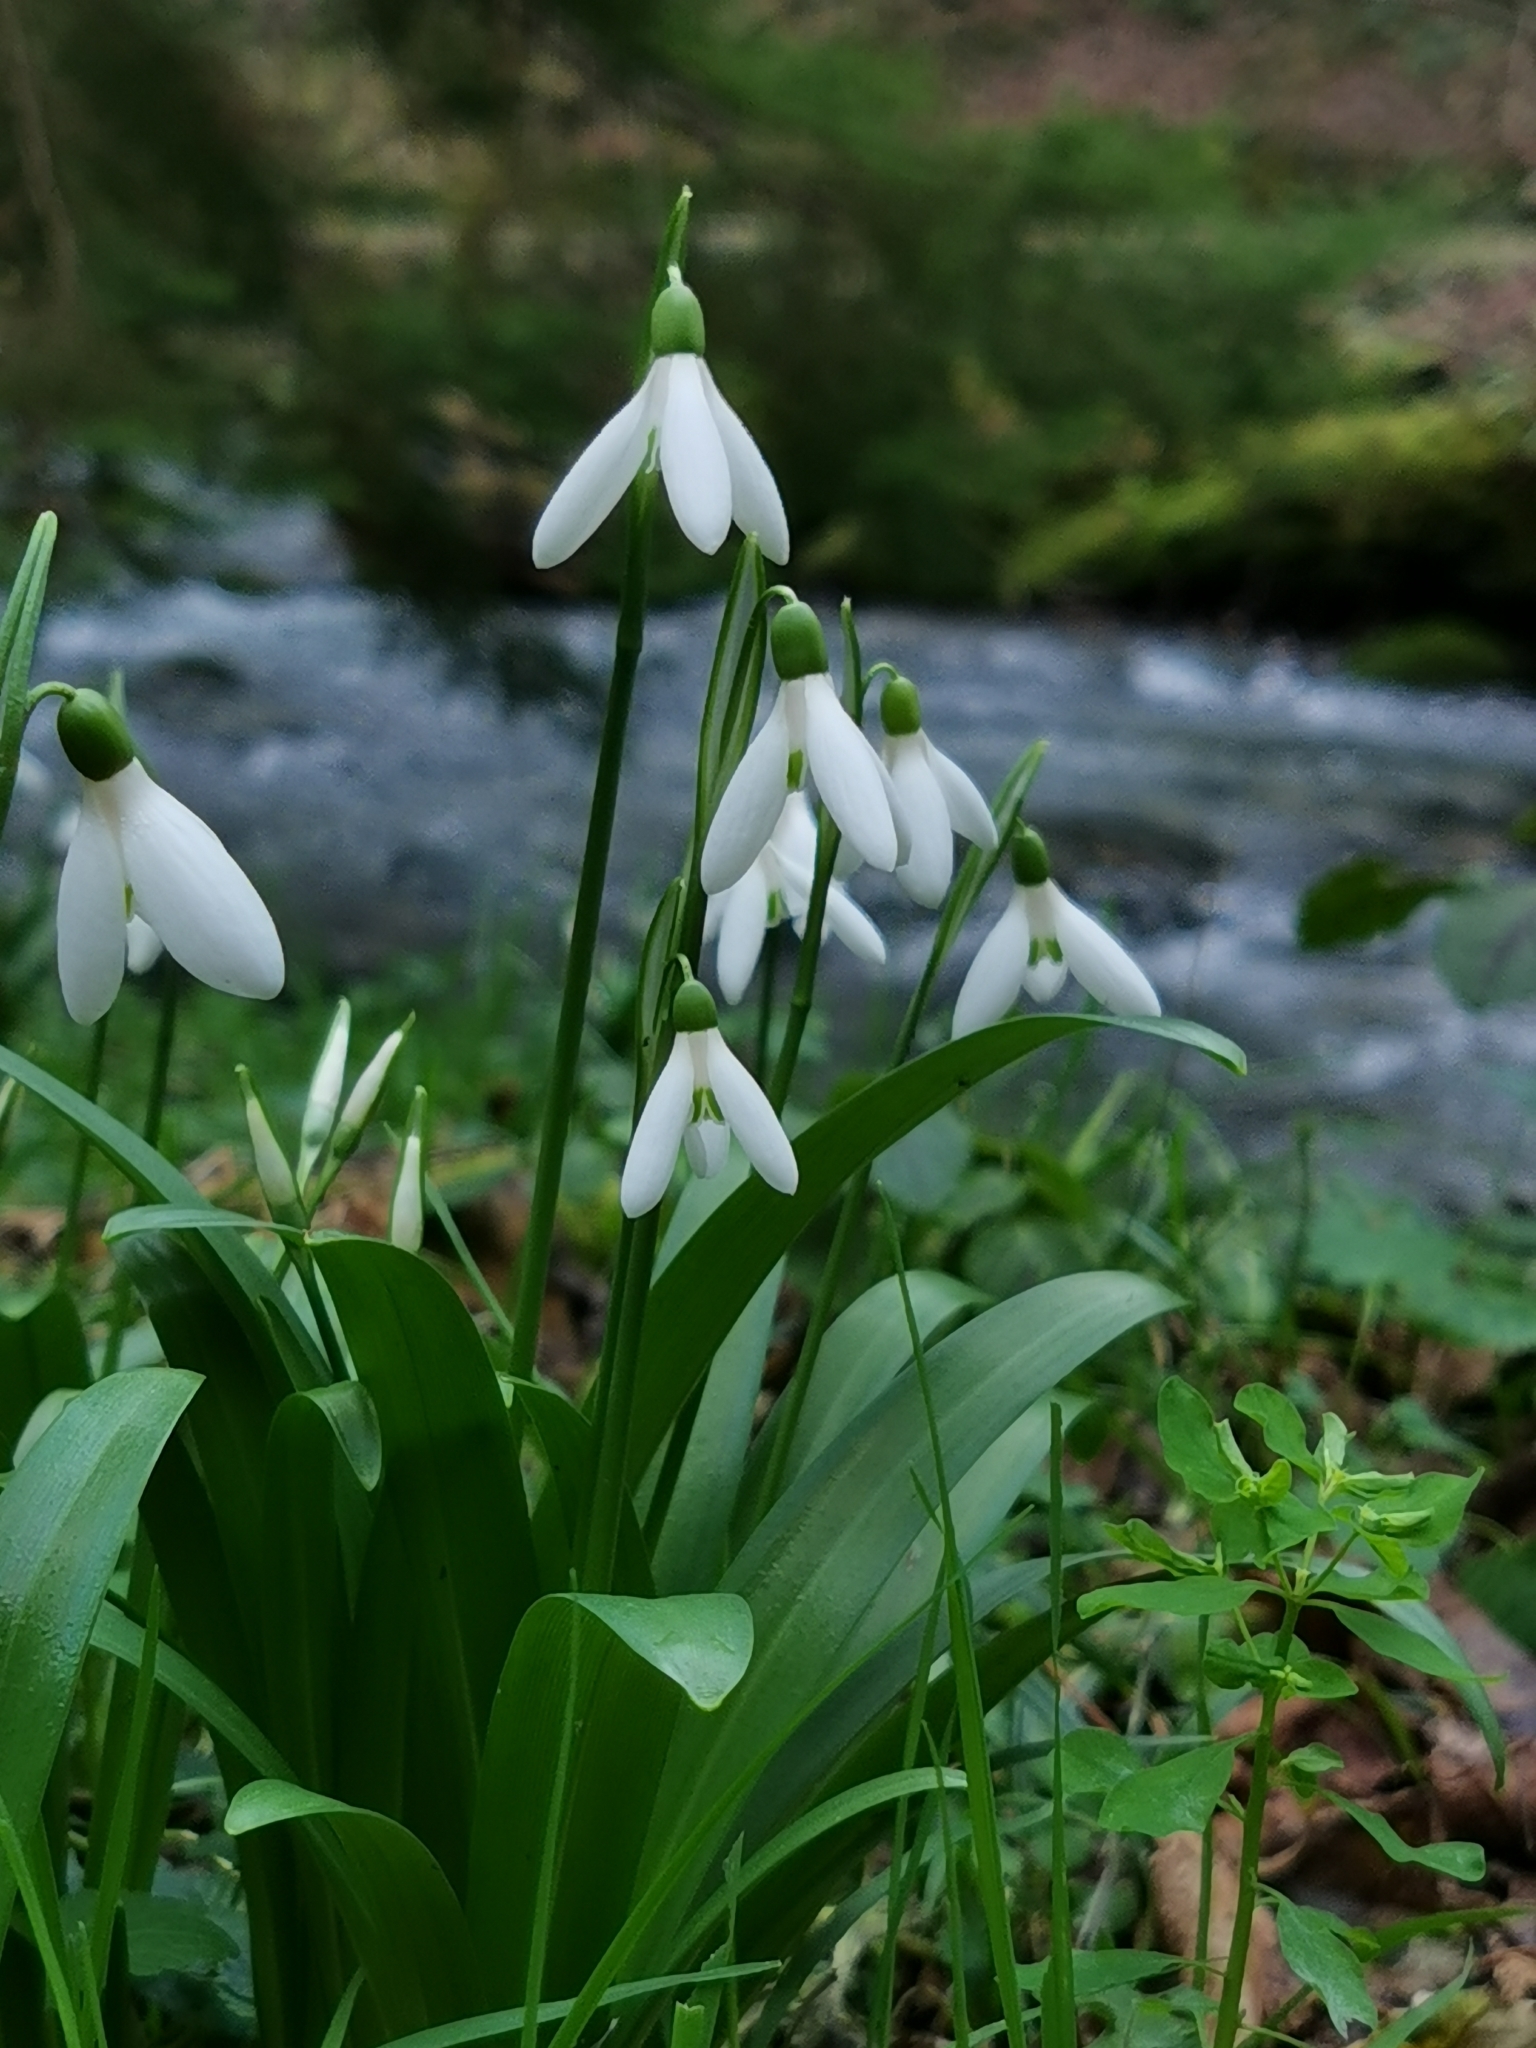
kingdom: Plantae
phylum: Tracheophyta
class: Liliopsida
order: Asparagales
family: Amaryllidaceae
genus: Galanthus
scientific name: Galanthus woronowii
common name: Green snowdrop
